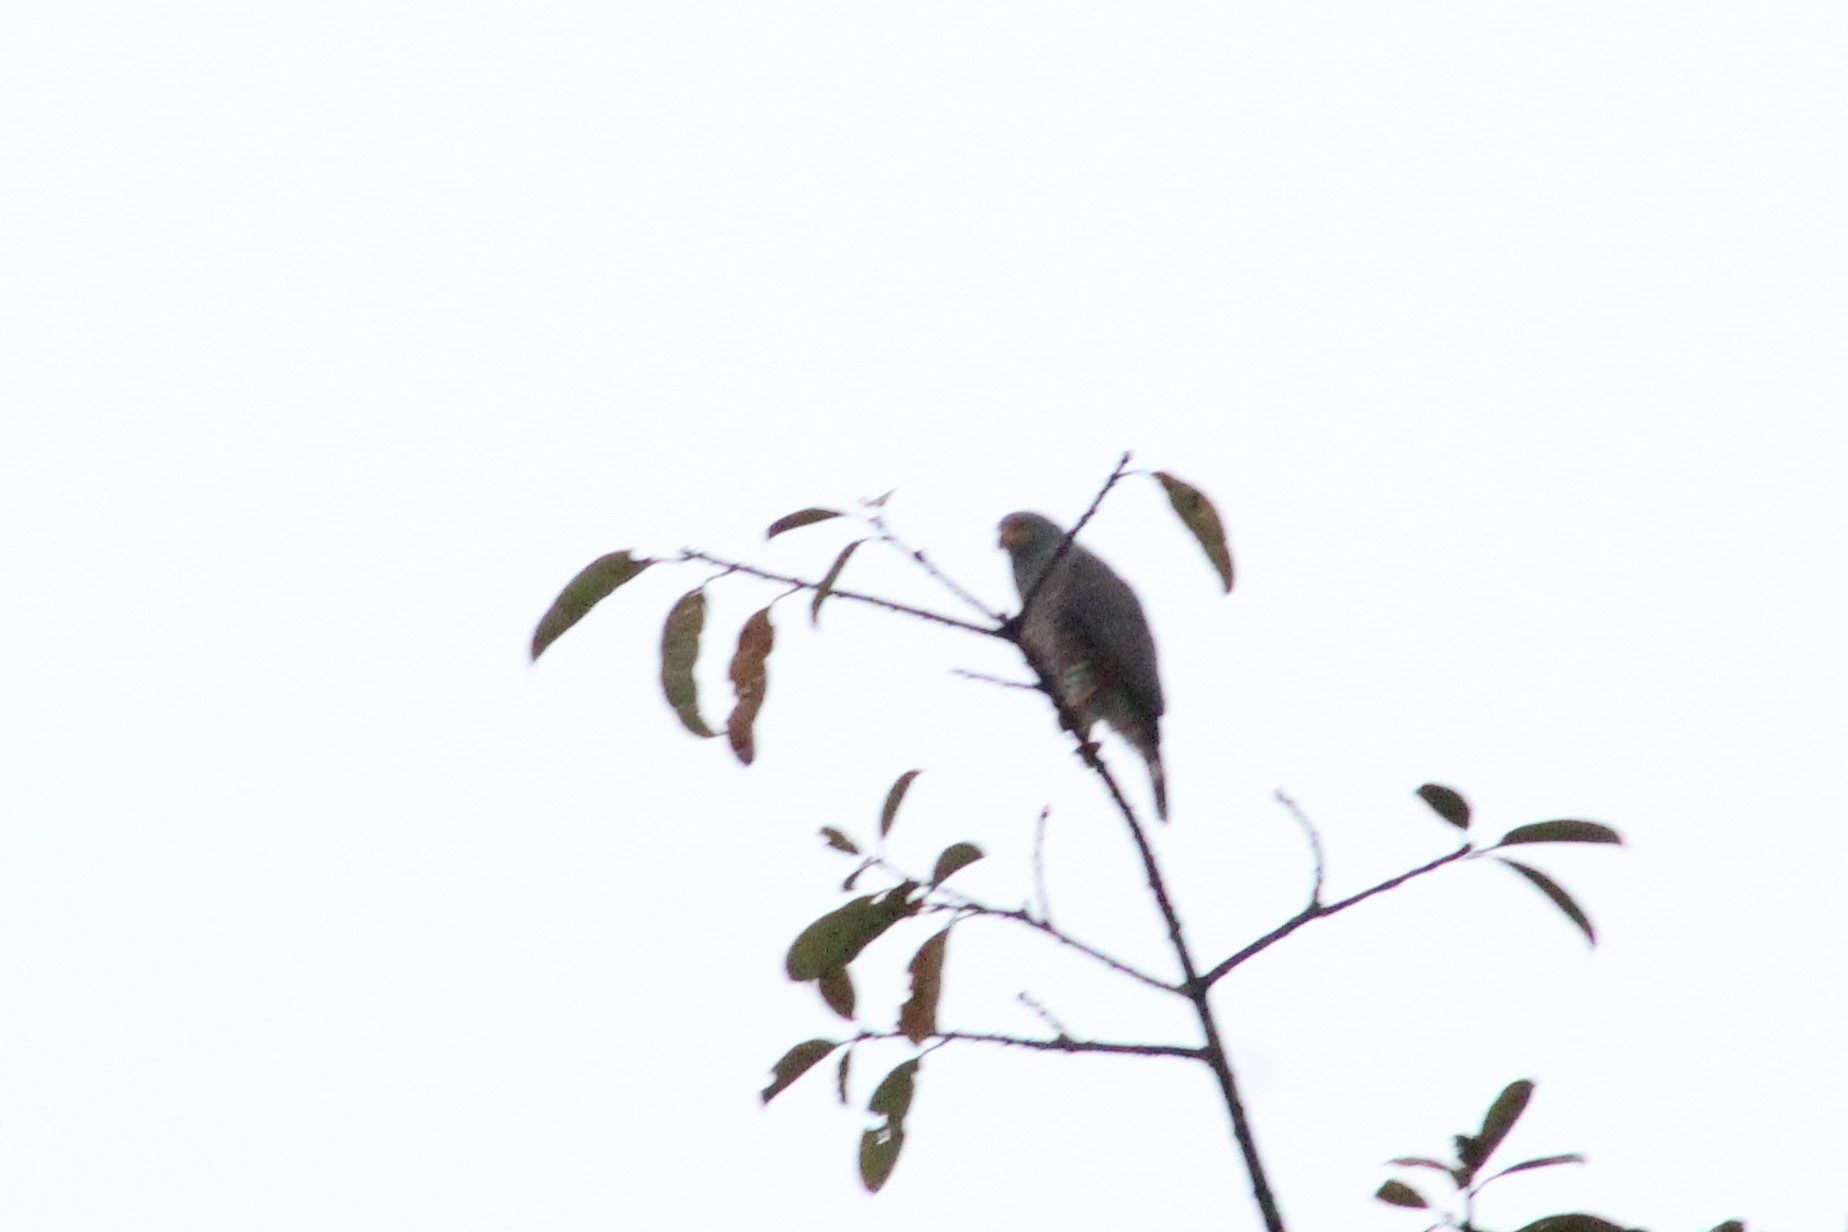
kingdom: Animalia
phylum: Chordata
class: Aves
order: Accipitriformes
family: Accipitridae
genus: Rupornis
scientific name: Rupornis magnirostris
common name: Roadside hawk
